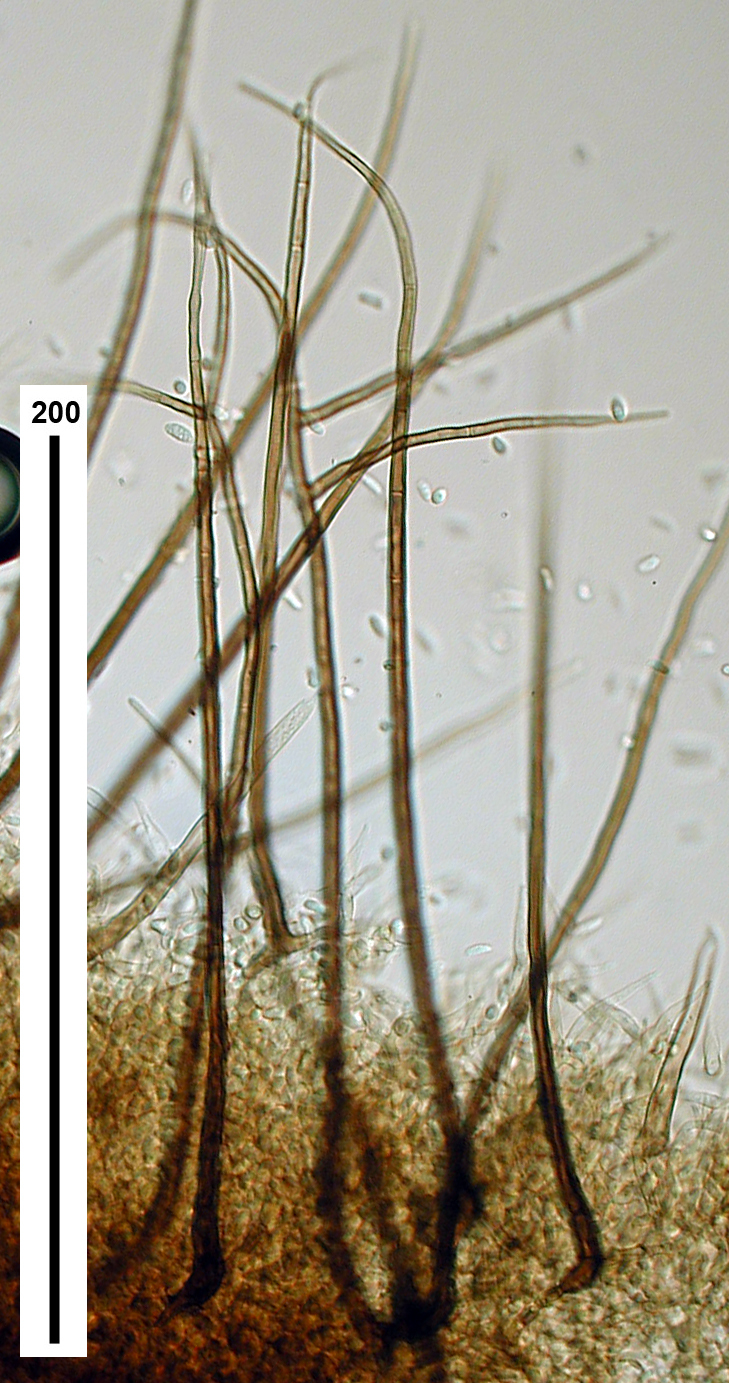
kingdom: Fungi
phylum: Ascomycota
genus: Vermiculariopsis
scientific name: Vermiculariopsis pediculata
